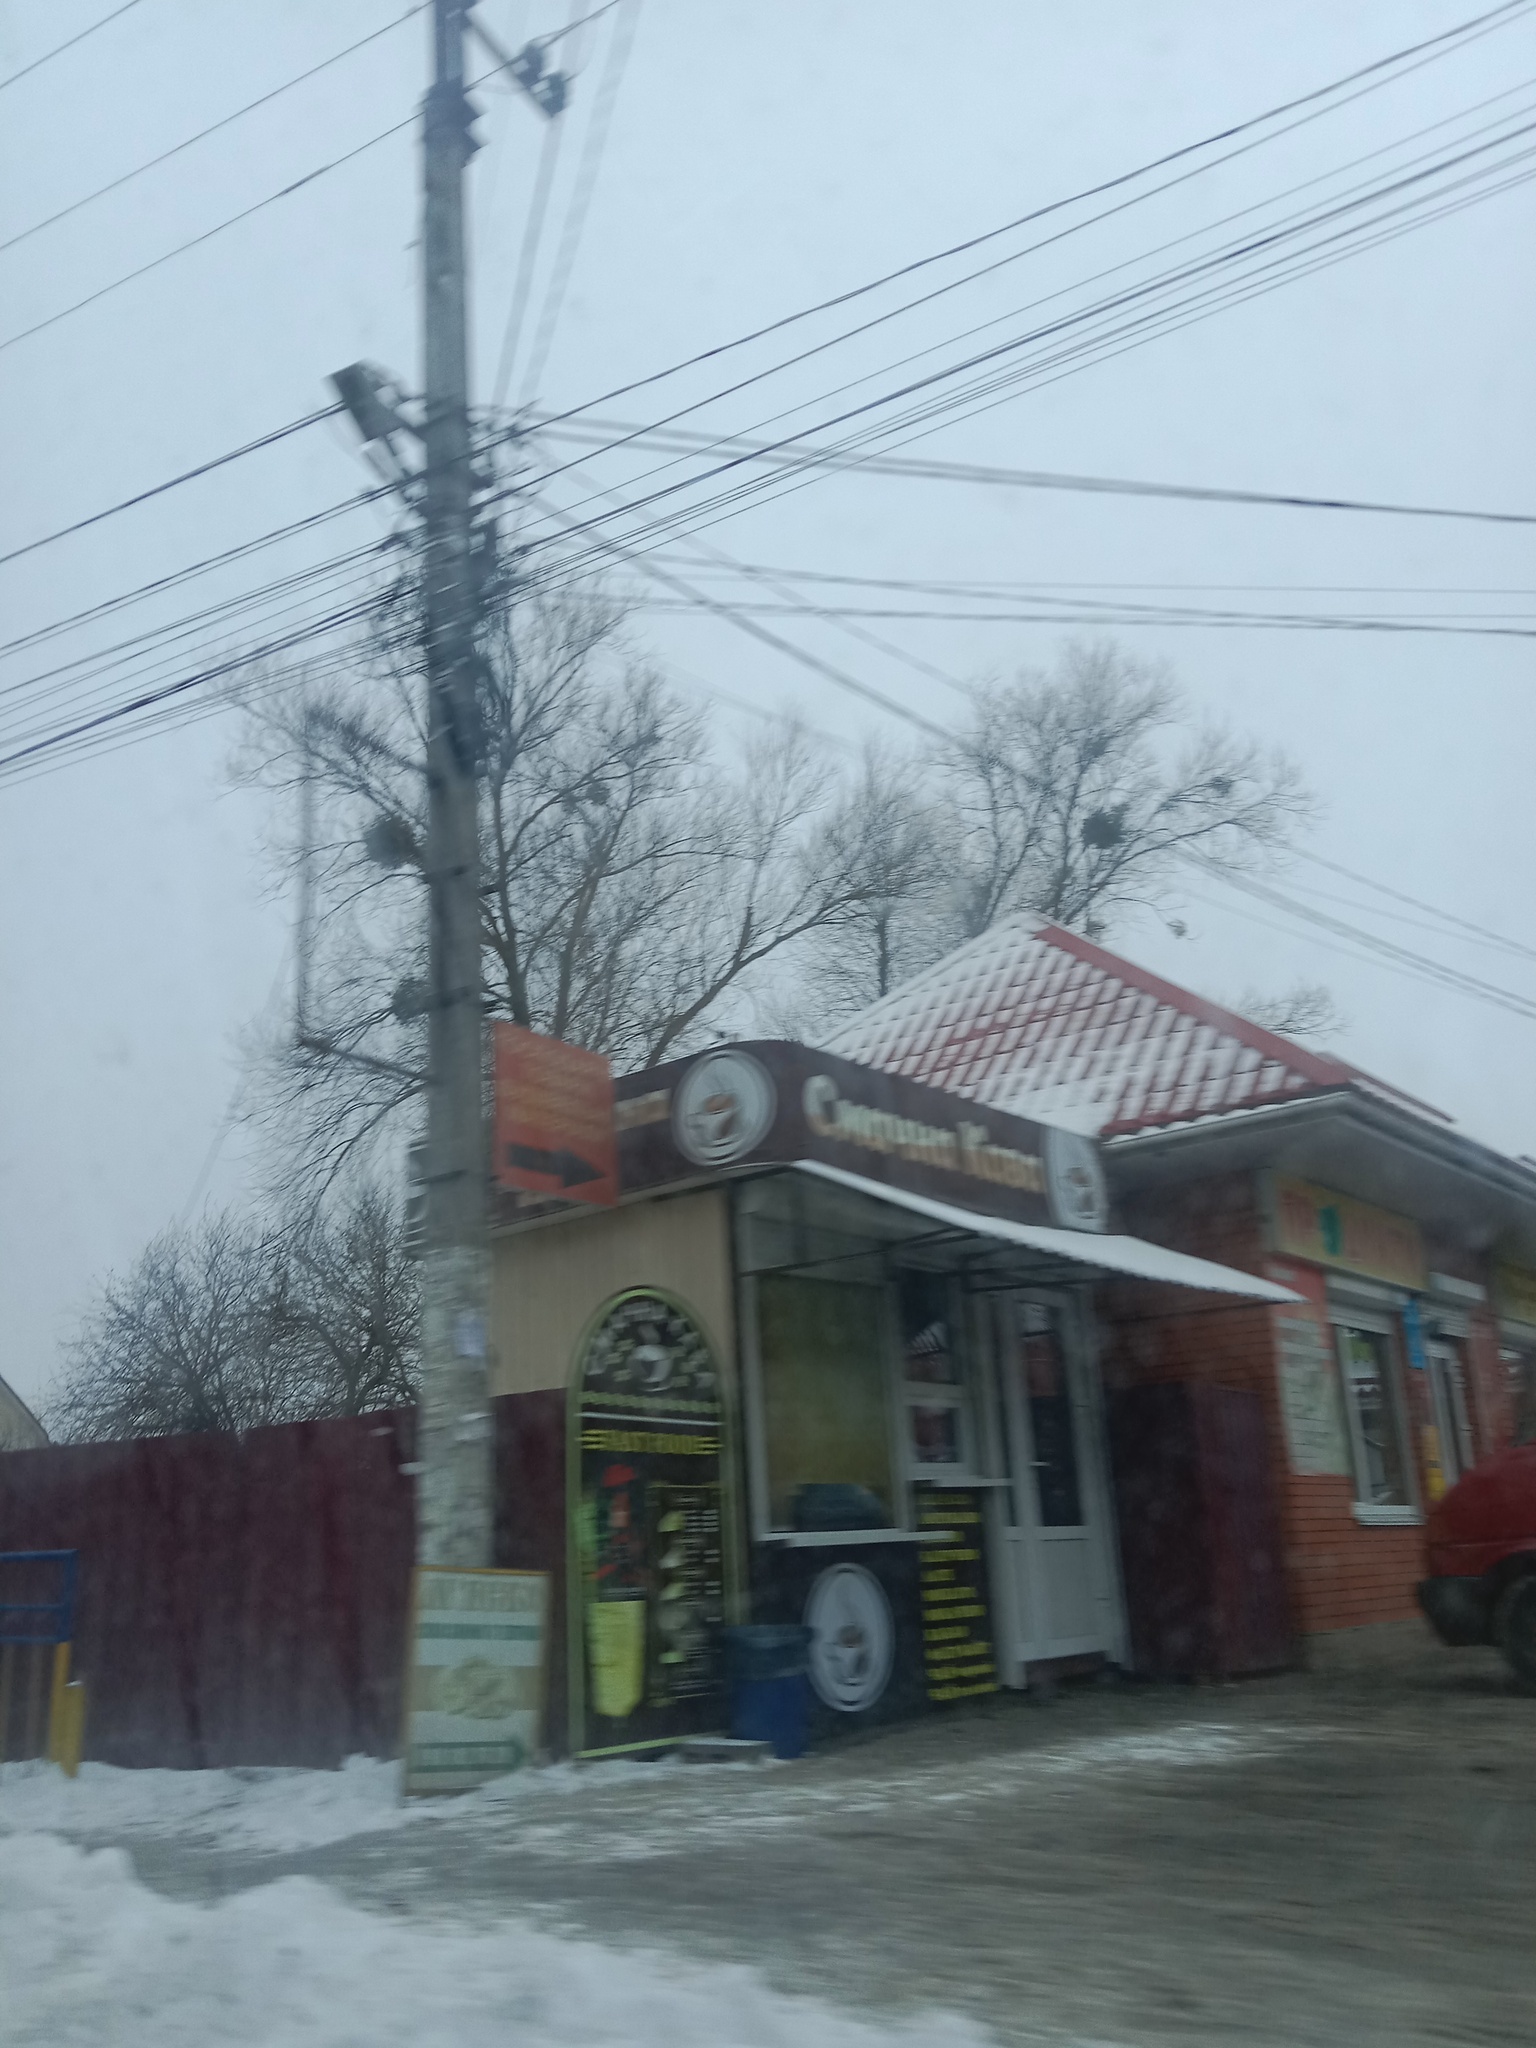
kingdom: Plantae
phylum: Tracheophyta
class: Magnoliopsida
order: Santalales
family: Viscaceae
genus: Viscum
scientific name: Viscum album
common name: Mistletoe
